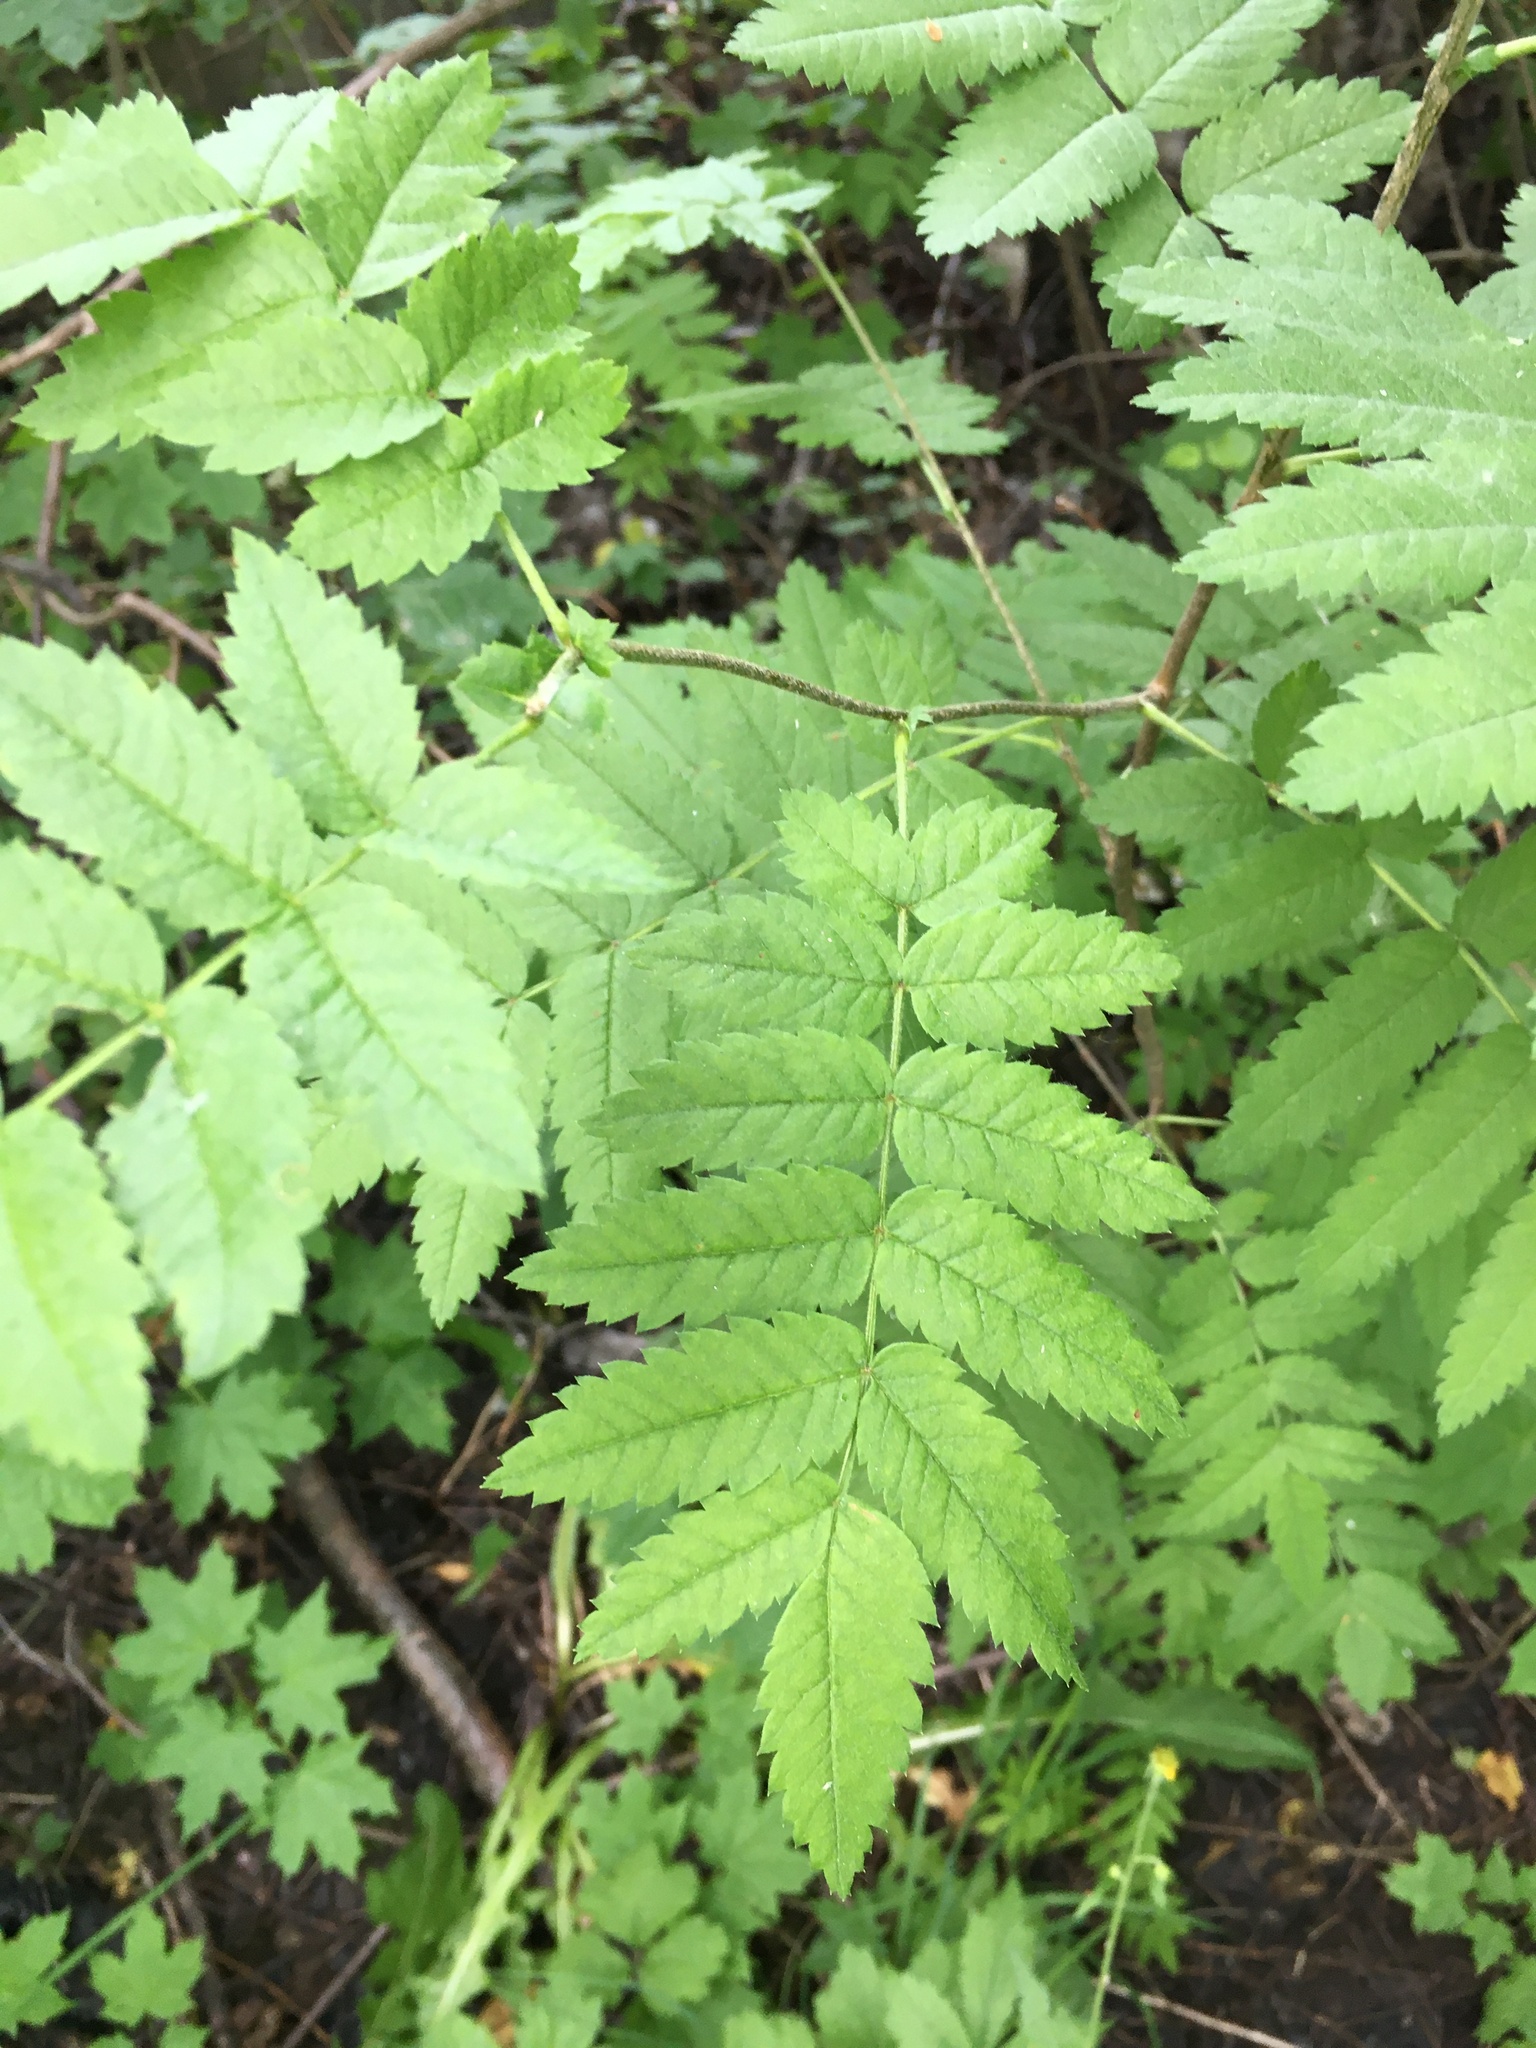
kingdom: Plantae
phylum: Tracheophyta
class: Magnoliopsida
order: Rosales
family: Rosaceae
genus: Sorbus
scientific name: Sorbus aucuparia
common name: Rowan
